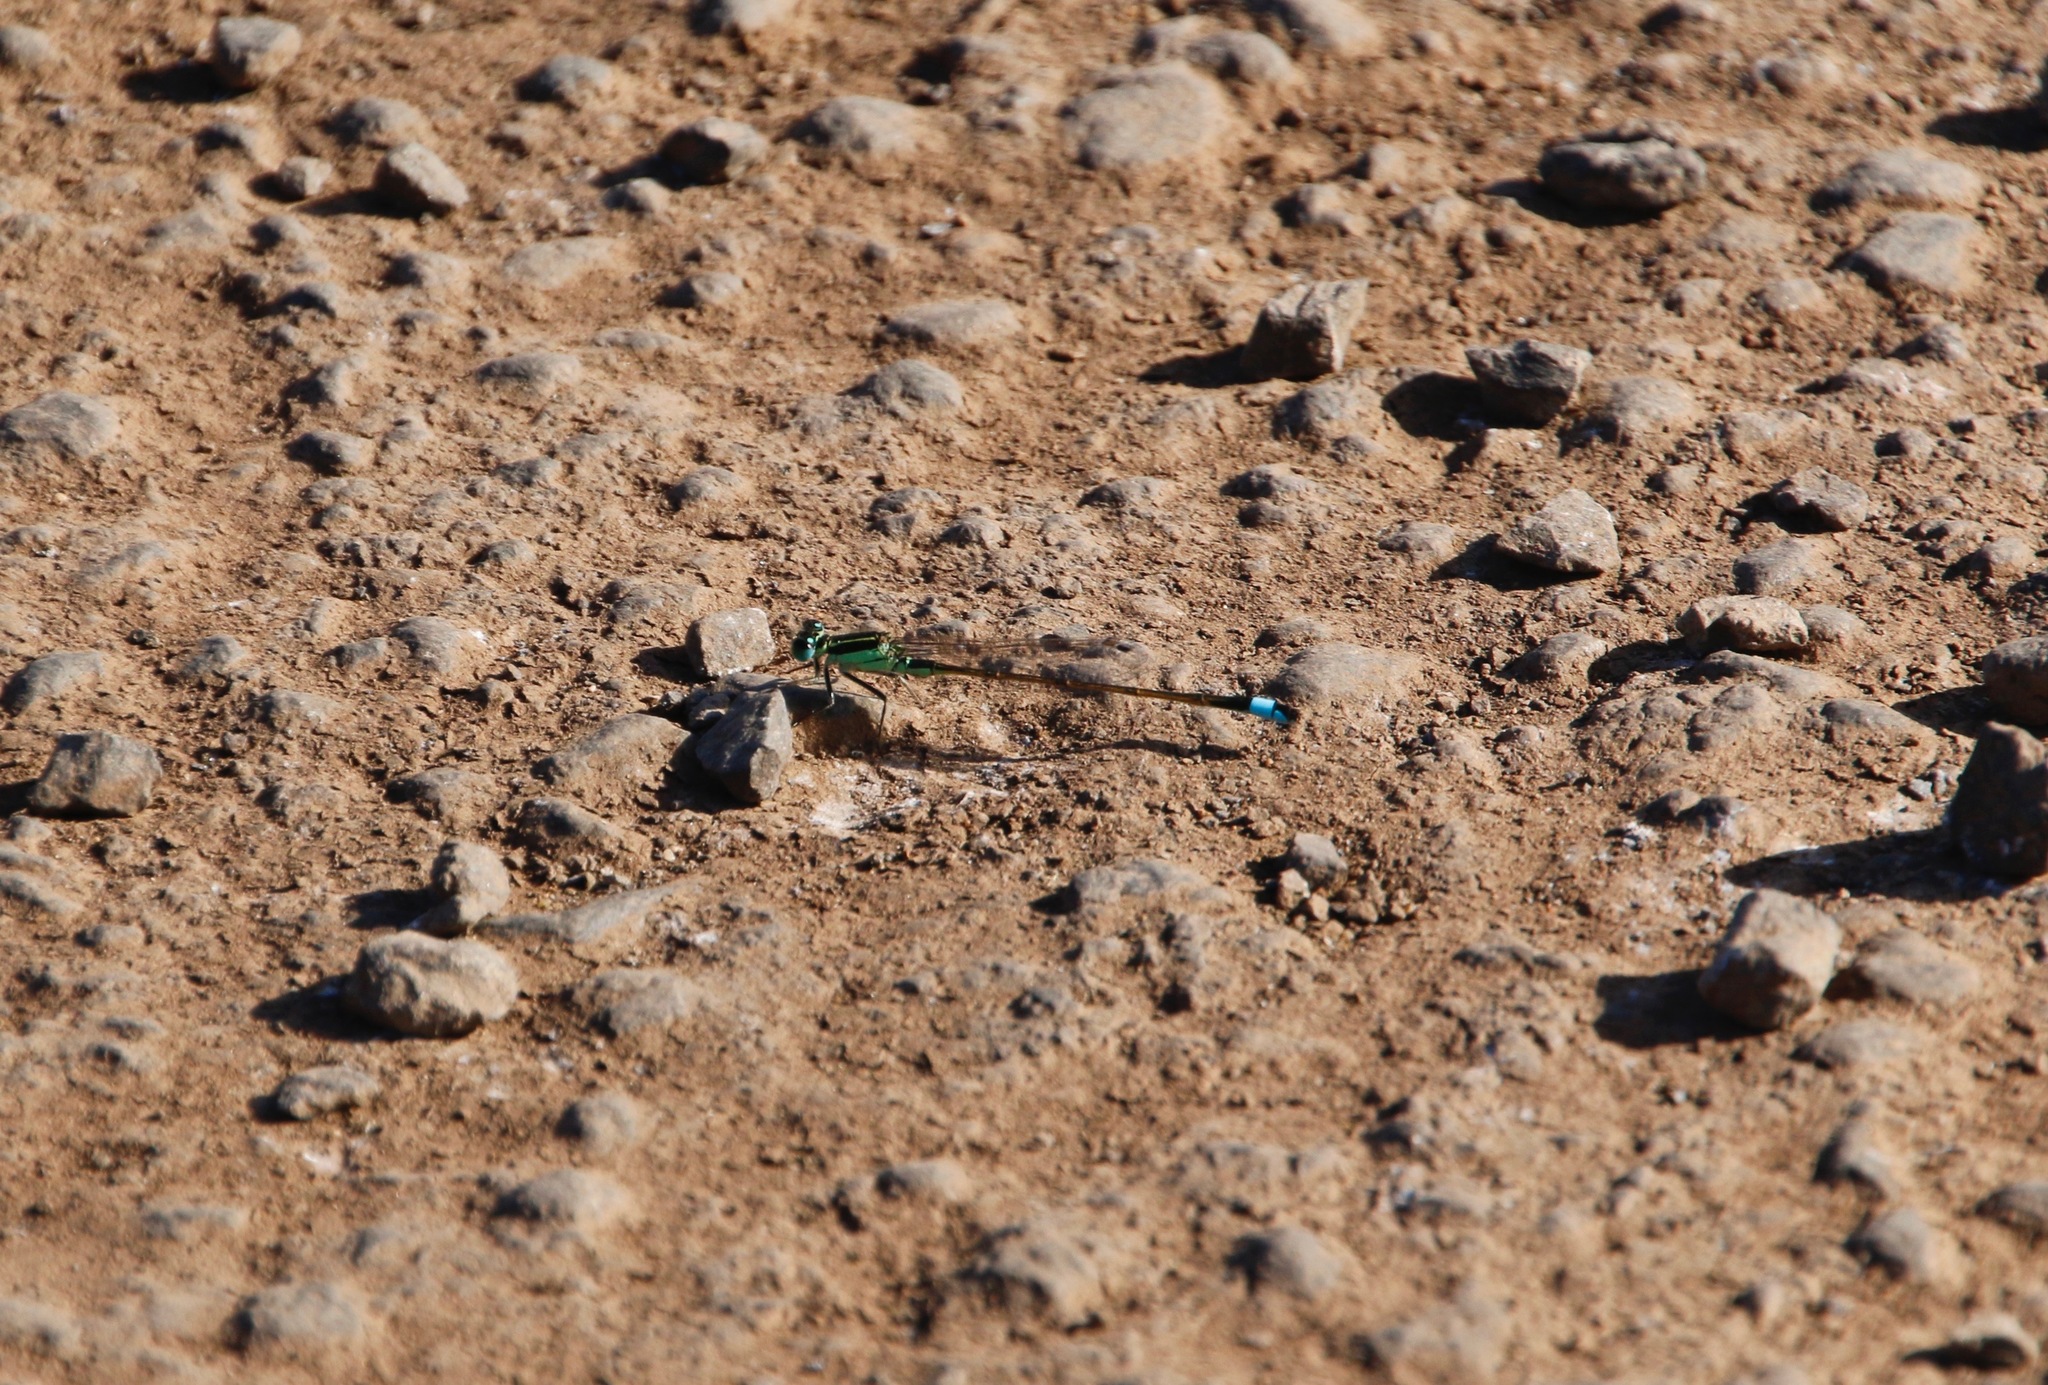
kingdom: Animalia
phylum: Arthropoda
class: Insecta
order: Odonata
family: Coenagrionidae
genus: Ischnura
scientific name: Ischnura ramburii
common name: Rambur's forktail
